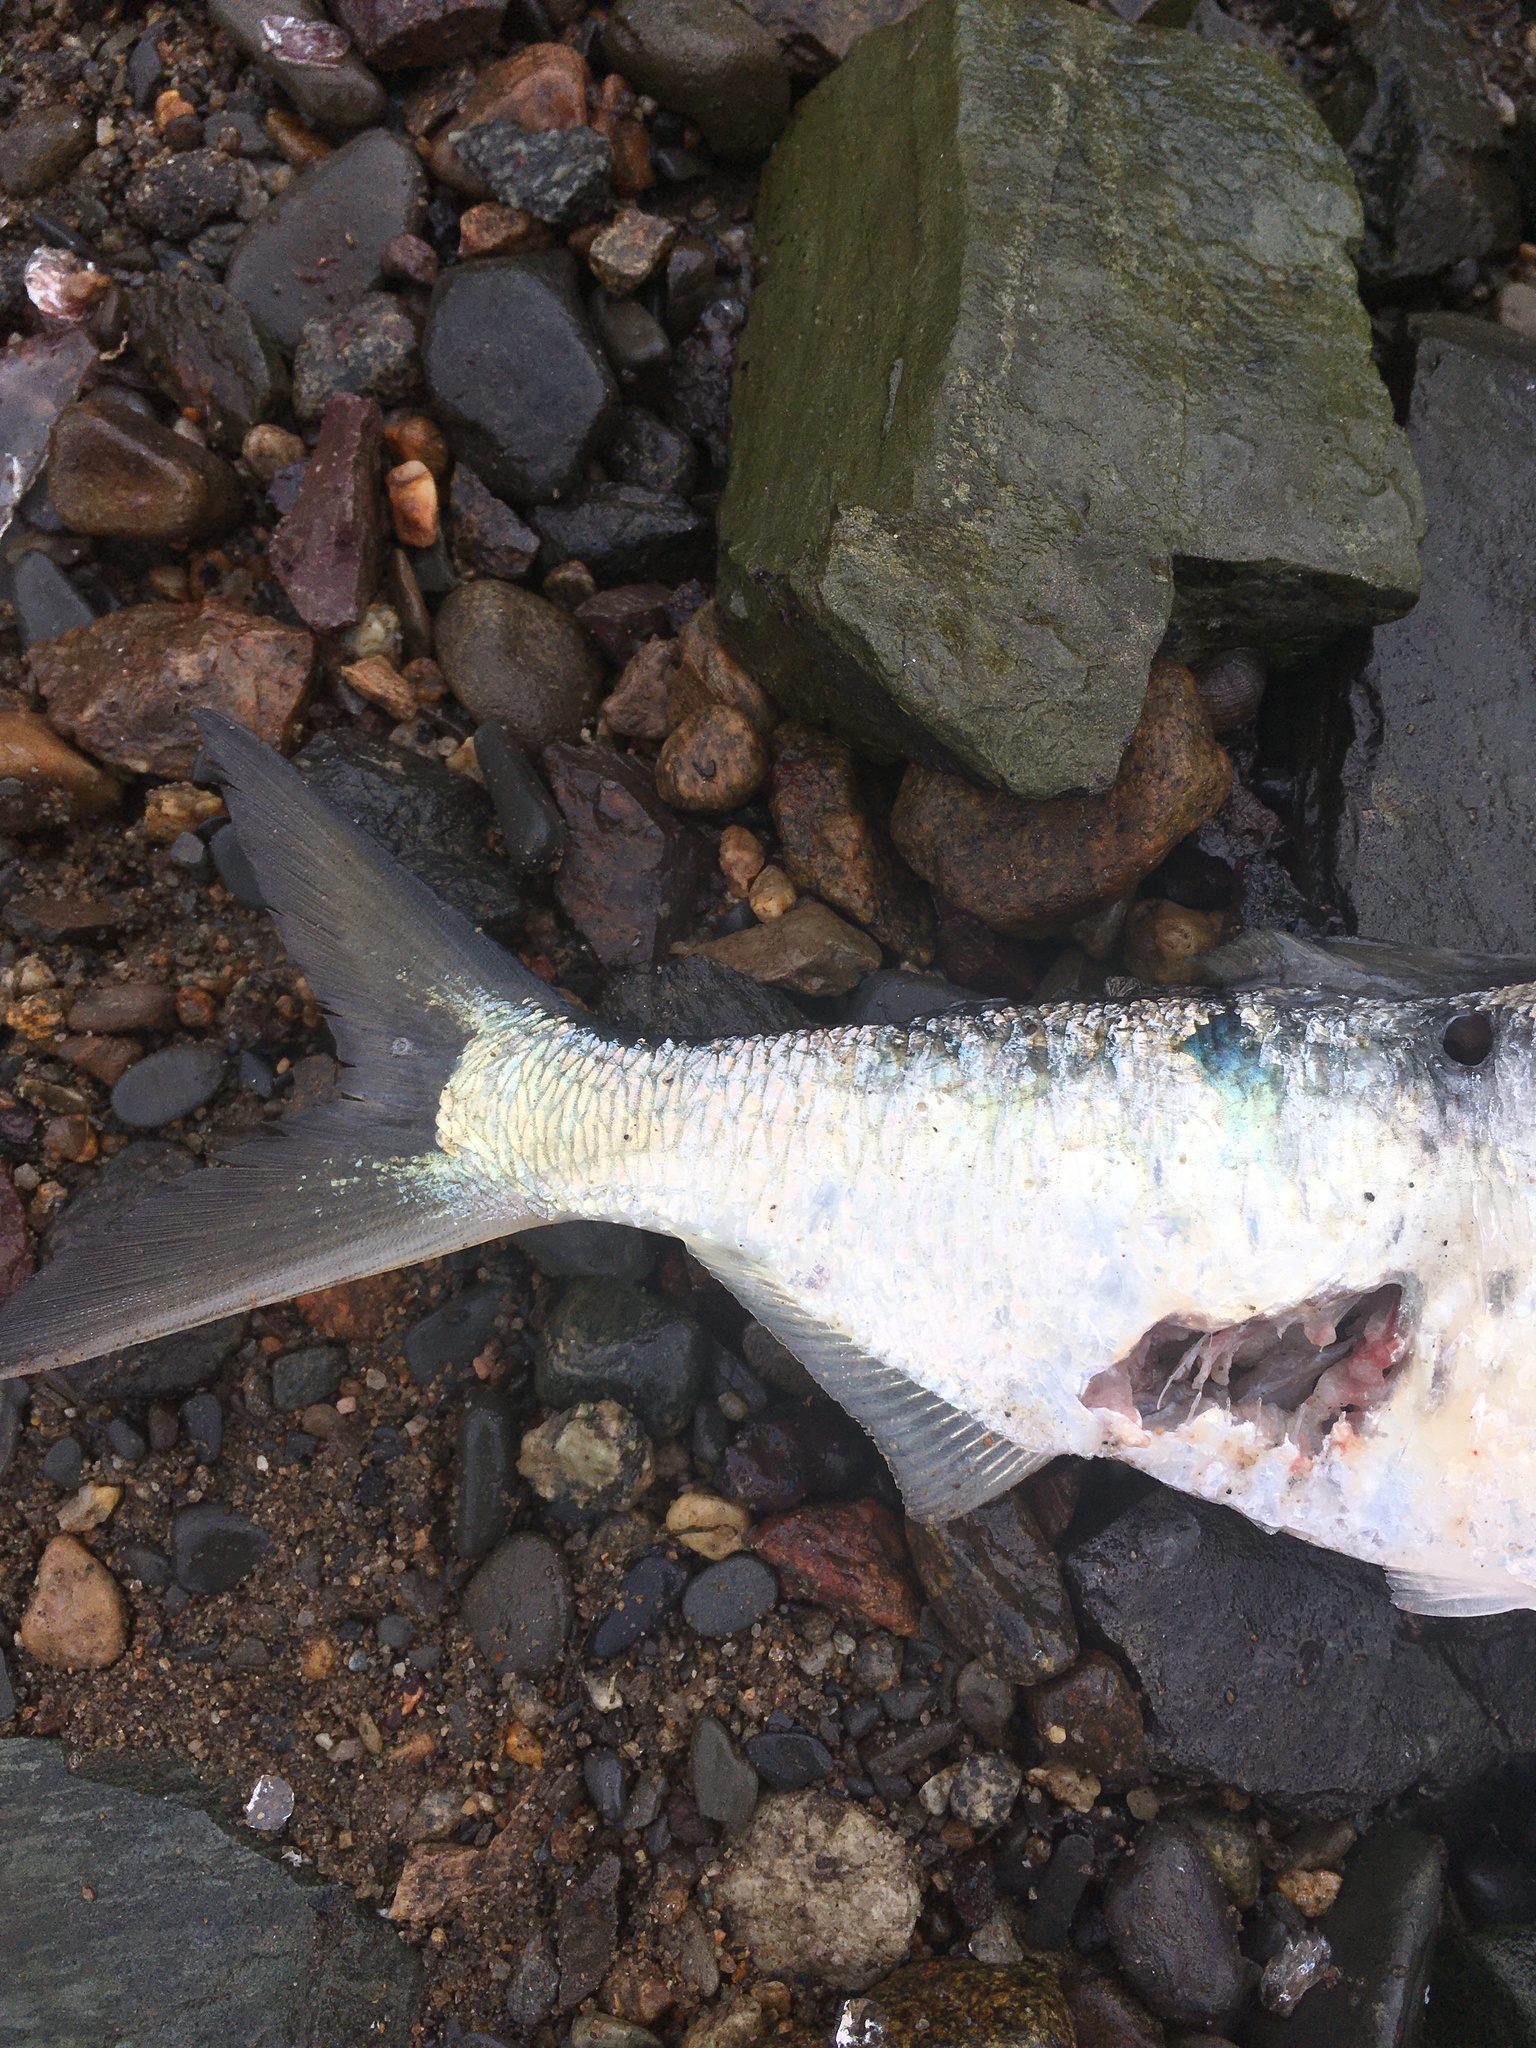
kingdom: Animalia
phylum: Chordata
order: Clupeiformes
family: Clupeidae
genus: Brevoortia
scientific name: Brevoortia tyrannus
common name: Atlantic menhaden
